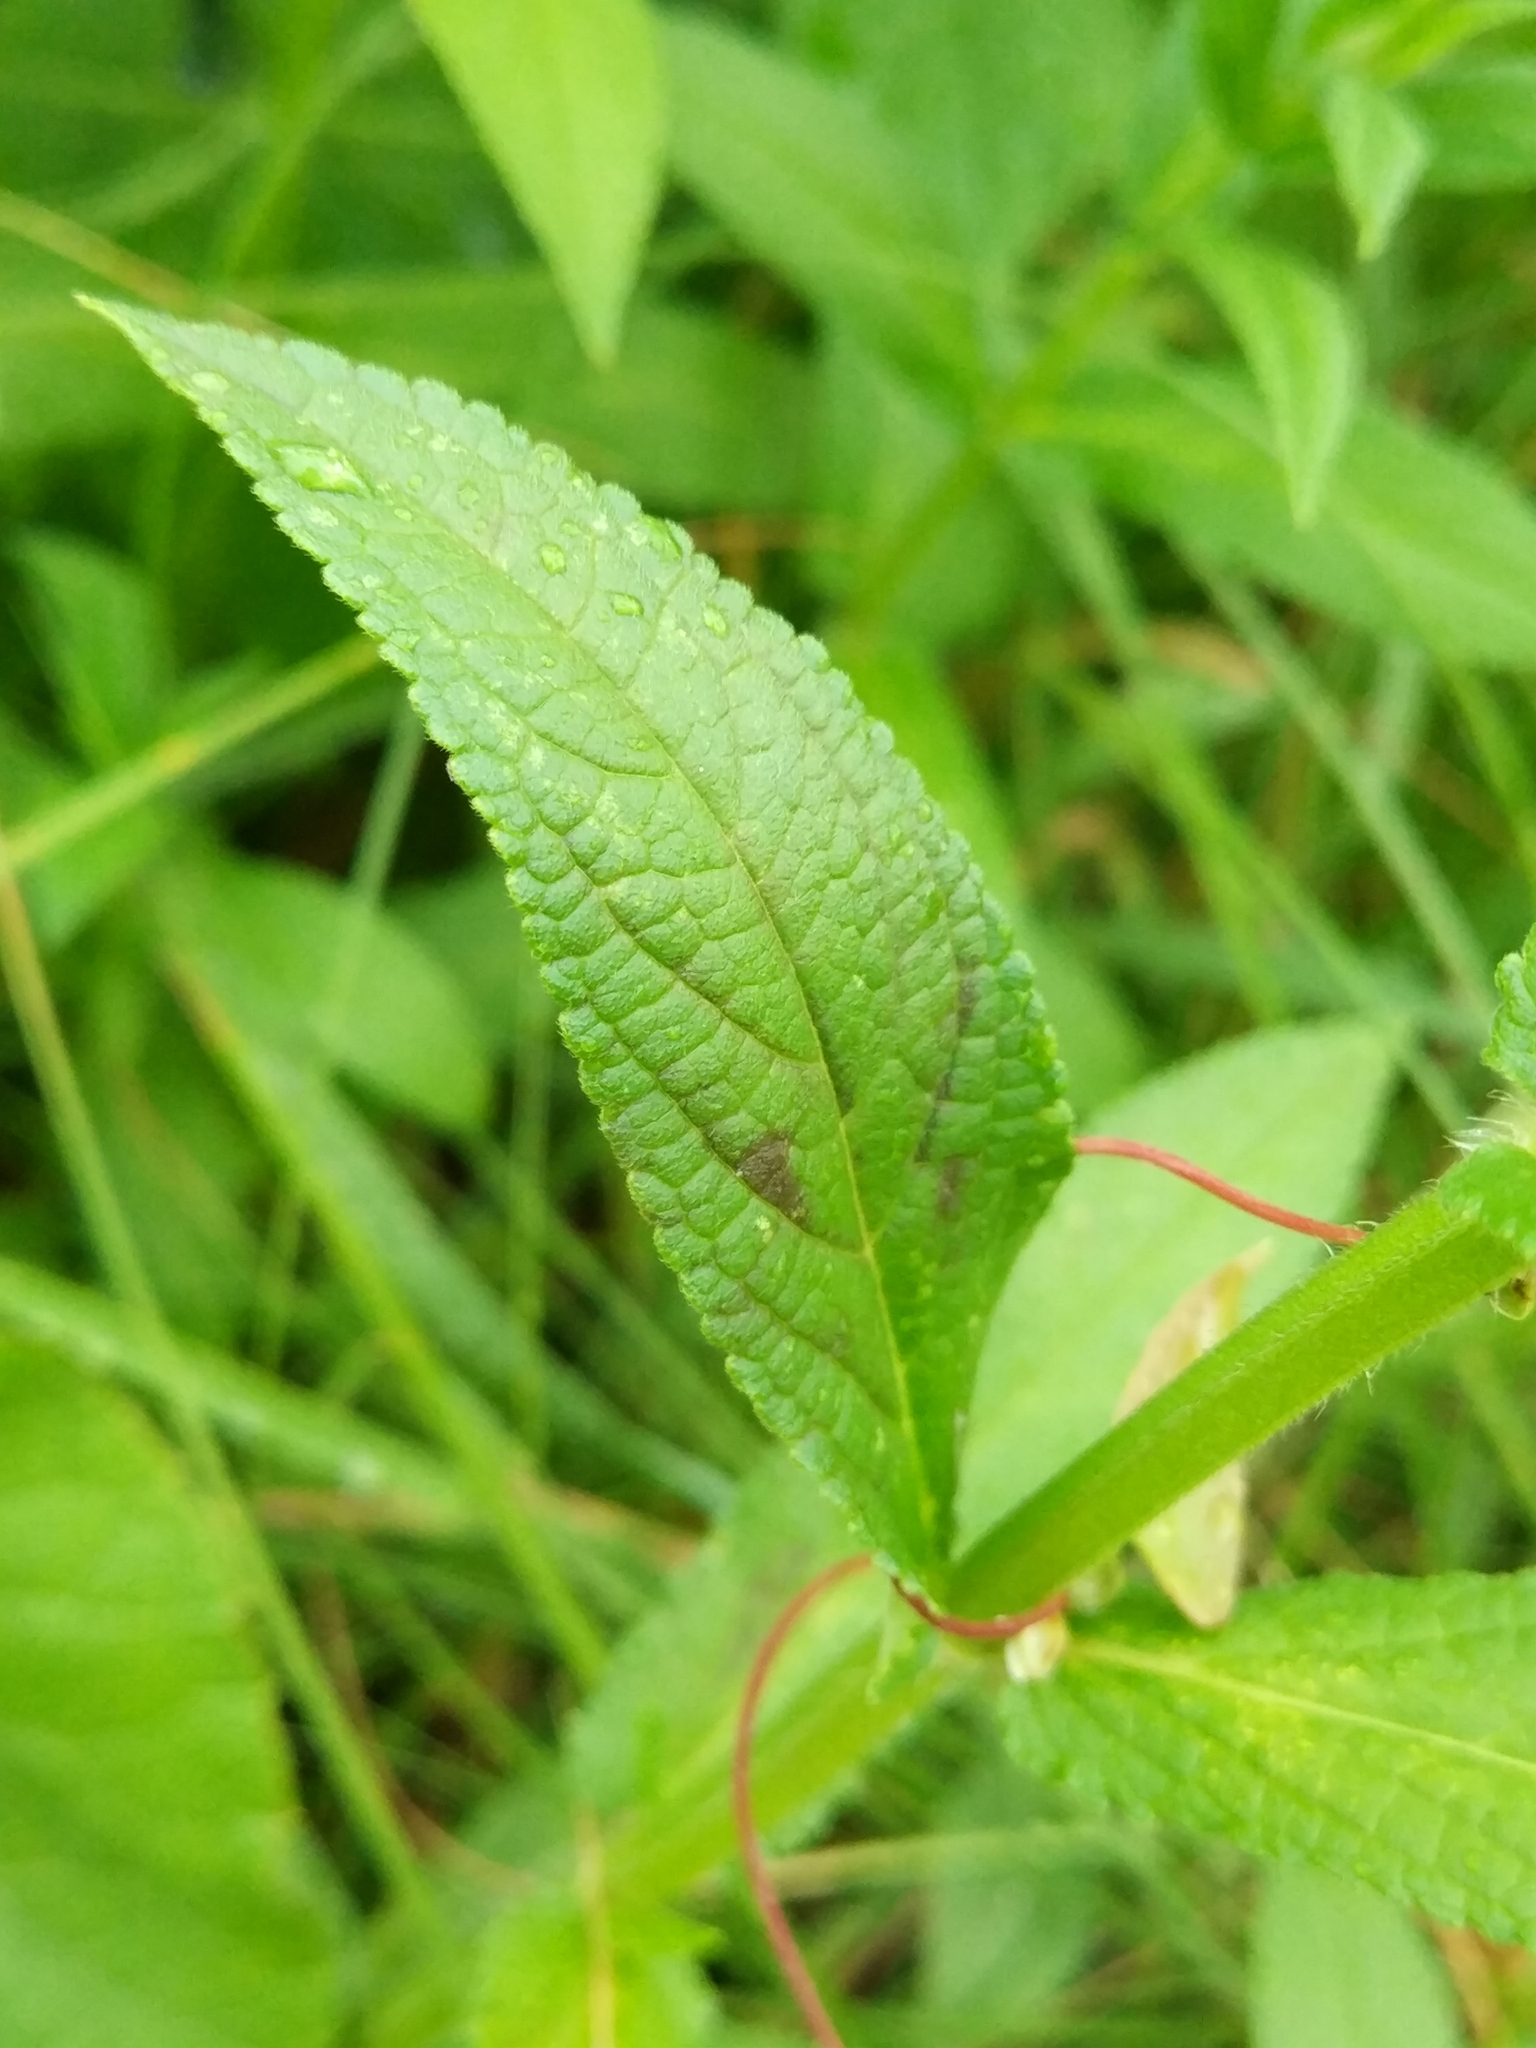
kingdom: Plantae
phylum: Tracheophyta
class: Magnoliopsida
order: Lamiales
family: Lamiaceae
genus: Stachys
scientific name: Stachys palustris
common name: Marsh woundwort
